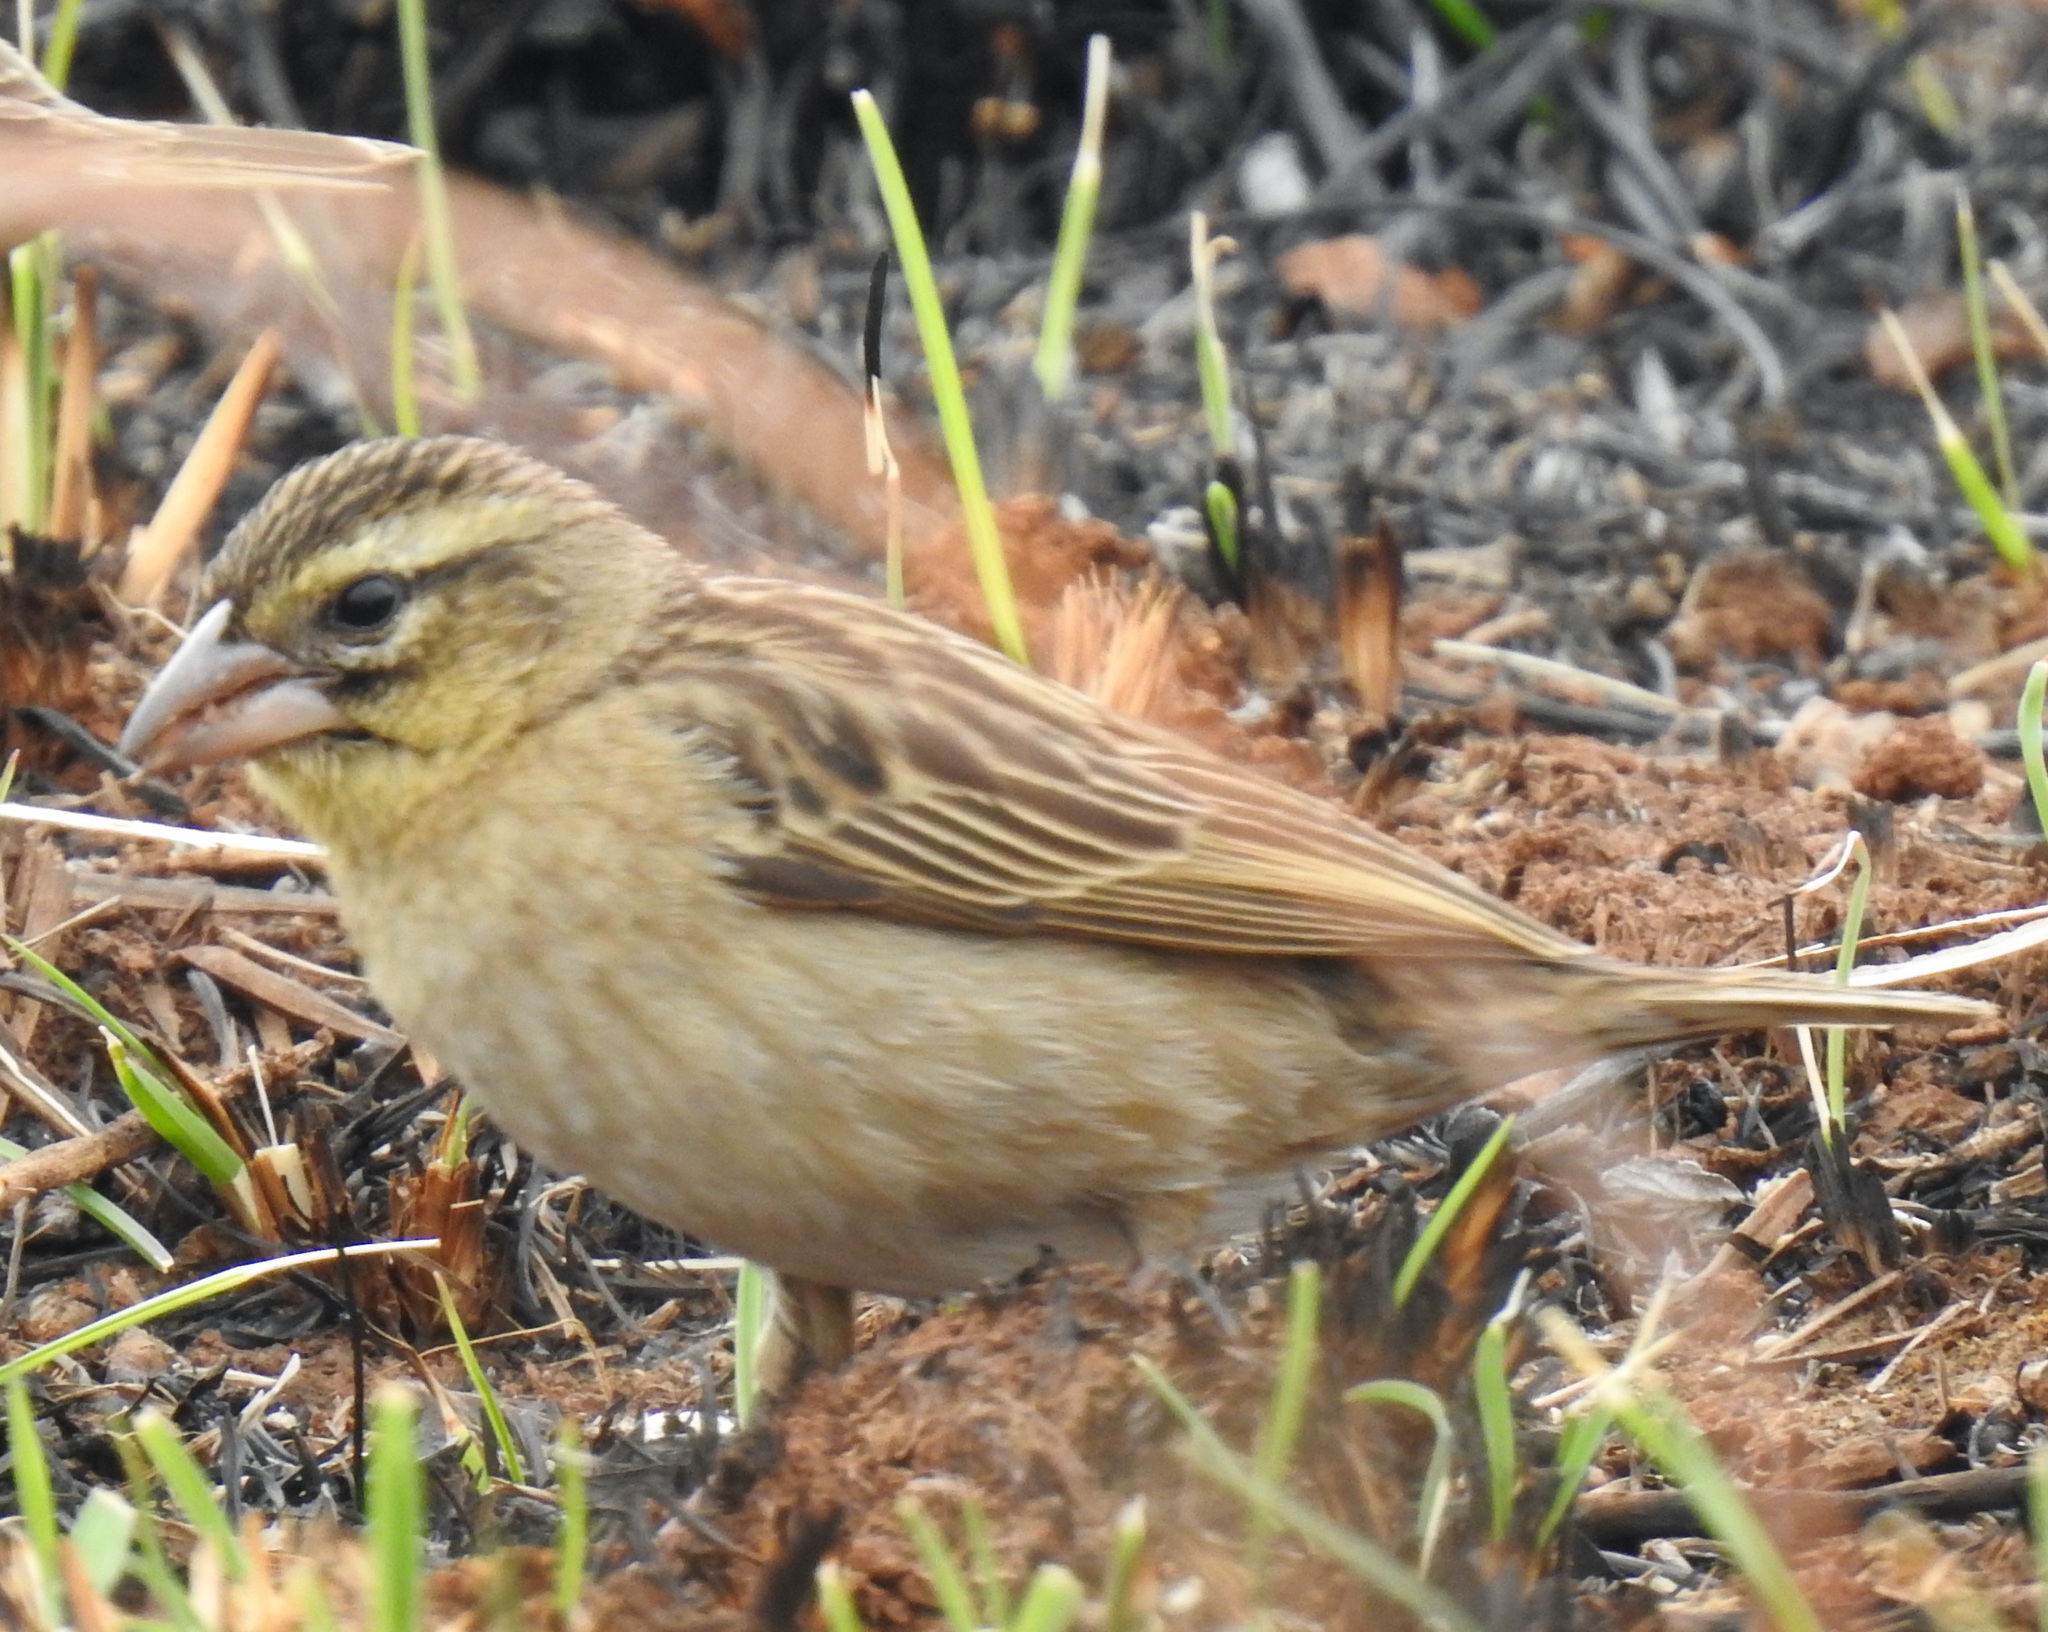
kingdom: Animalia
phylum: Chordata
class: Aves
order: Passeriformes
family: Ploceidae
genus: Euplectes
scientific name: Euplectes orix
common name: Southern red bishop
